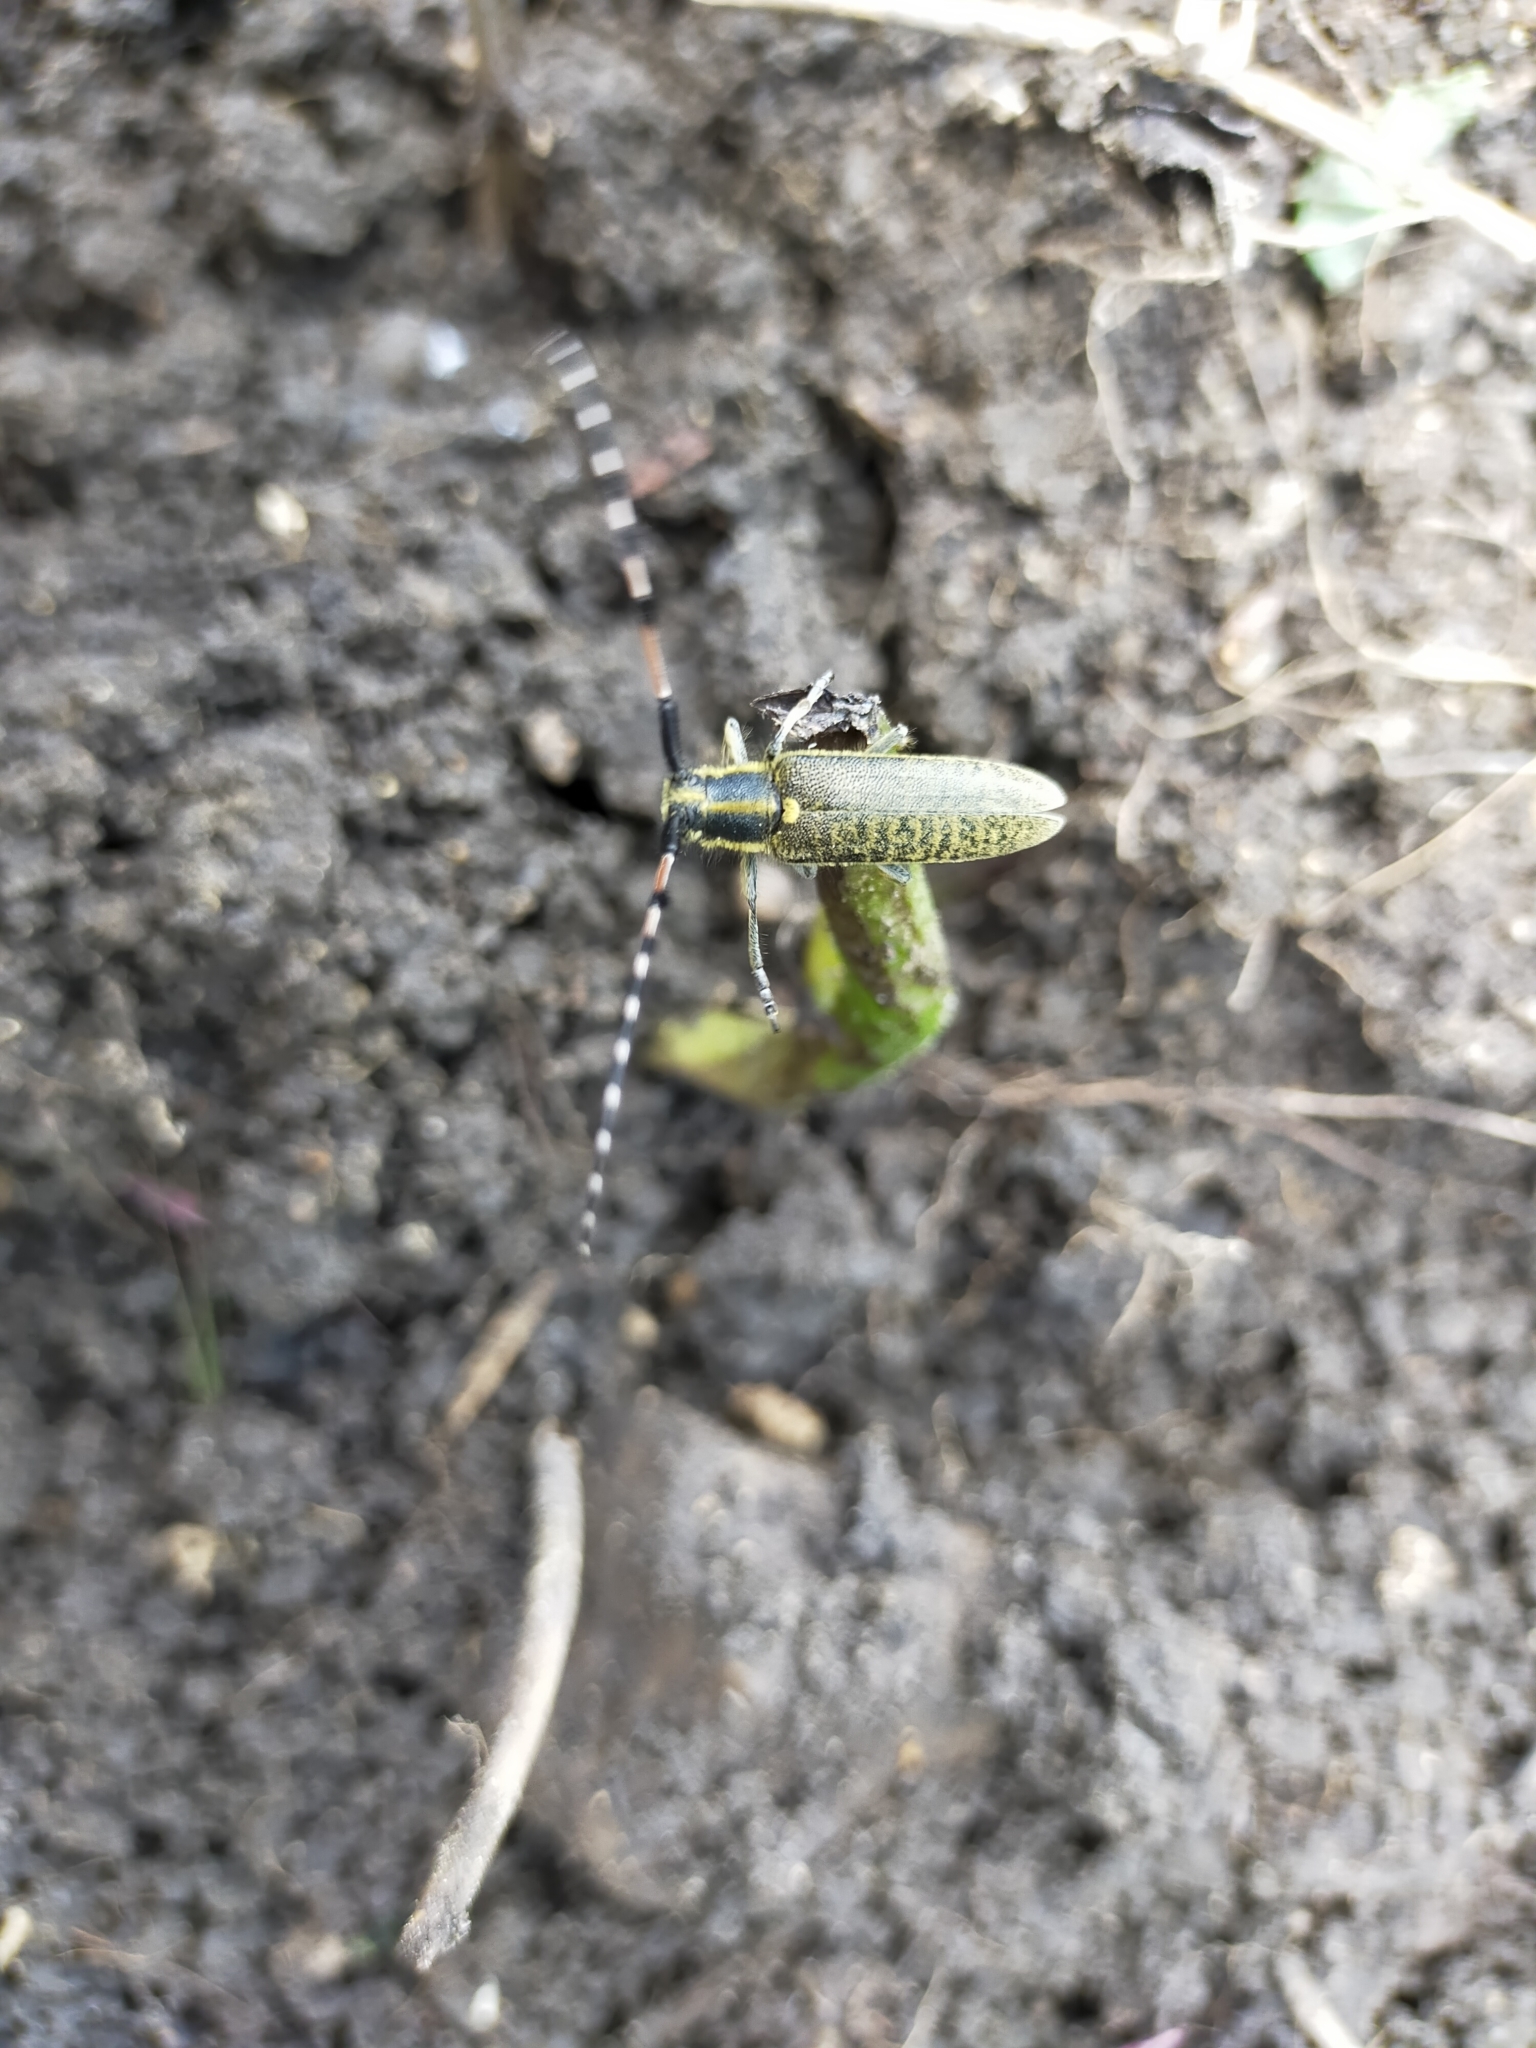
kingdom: Animalia
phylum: Arthropoda
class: Insecta
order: Coleoptera
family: Cerambycidae
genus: Agapanthia
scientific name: Agapanthia dahlii
